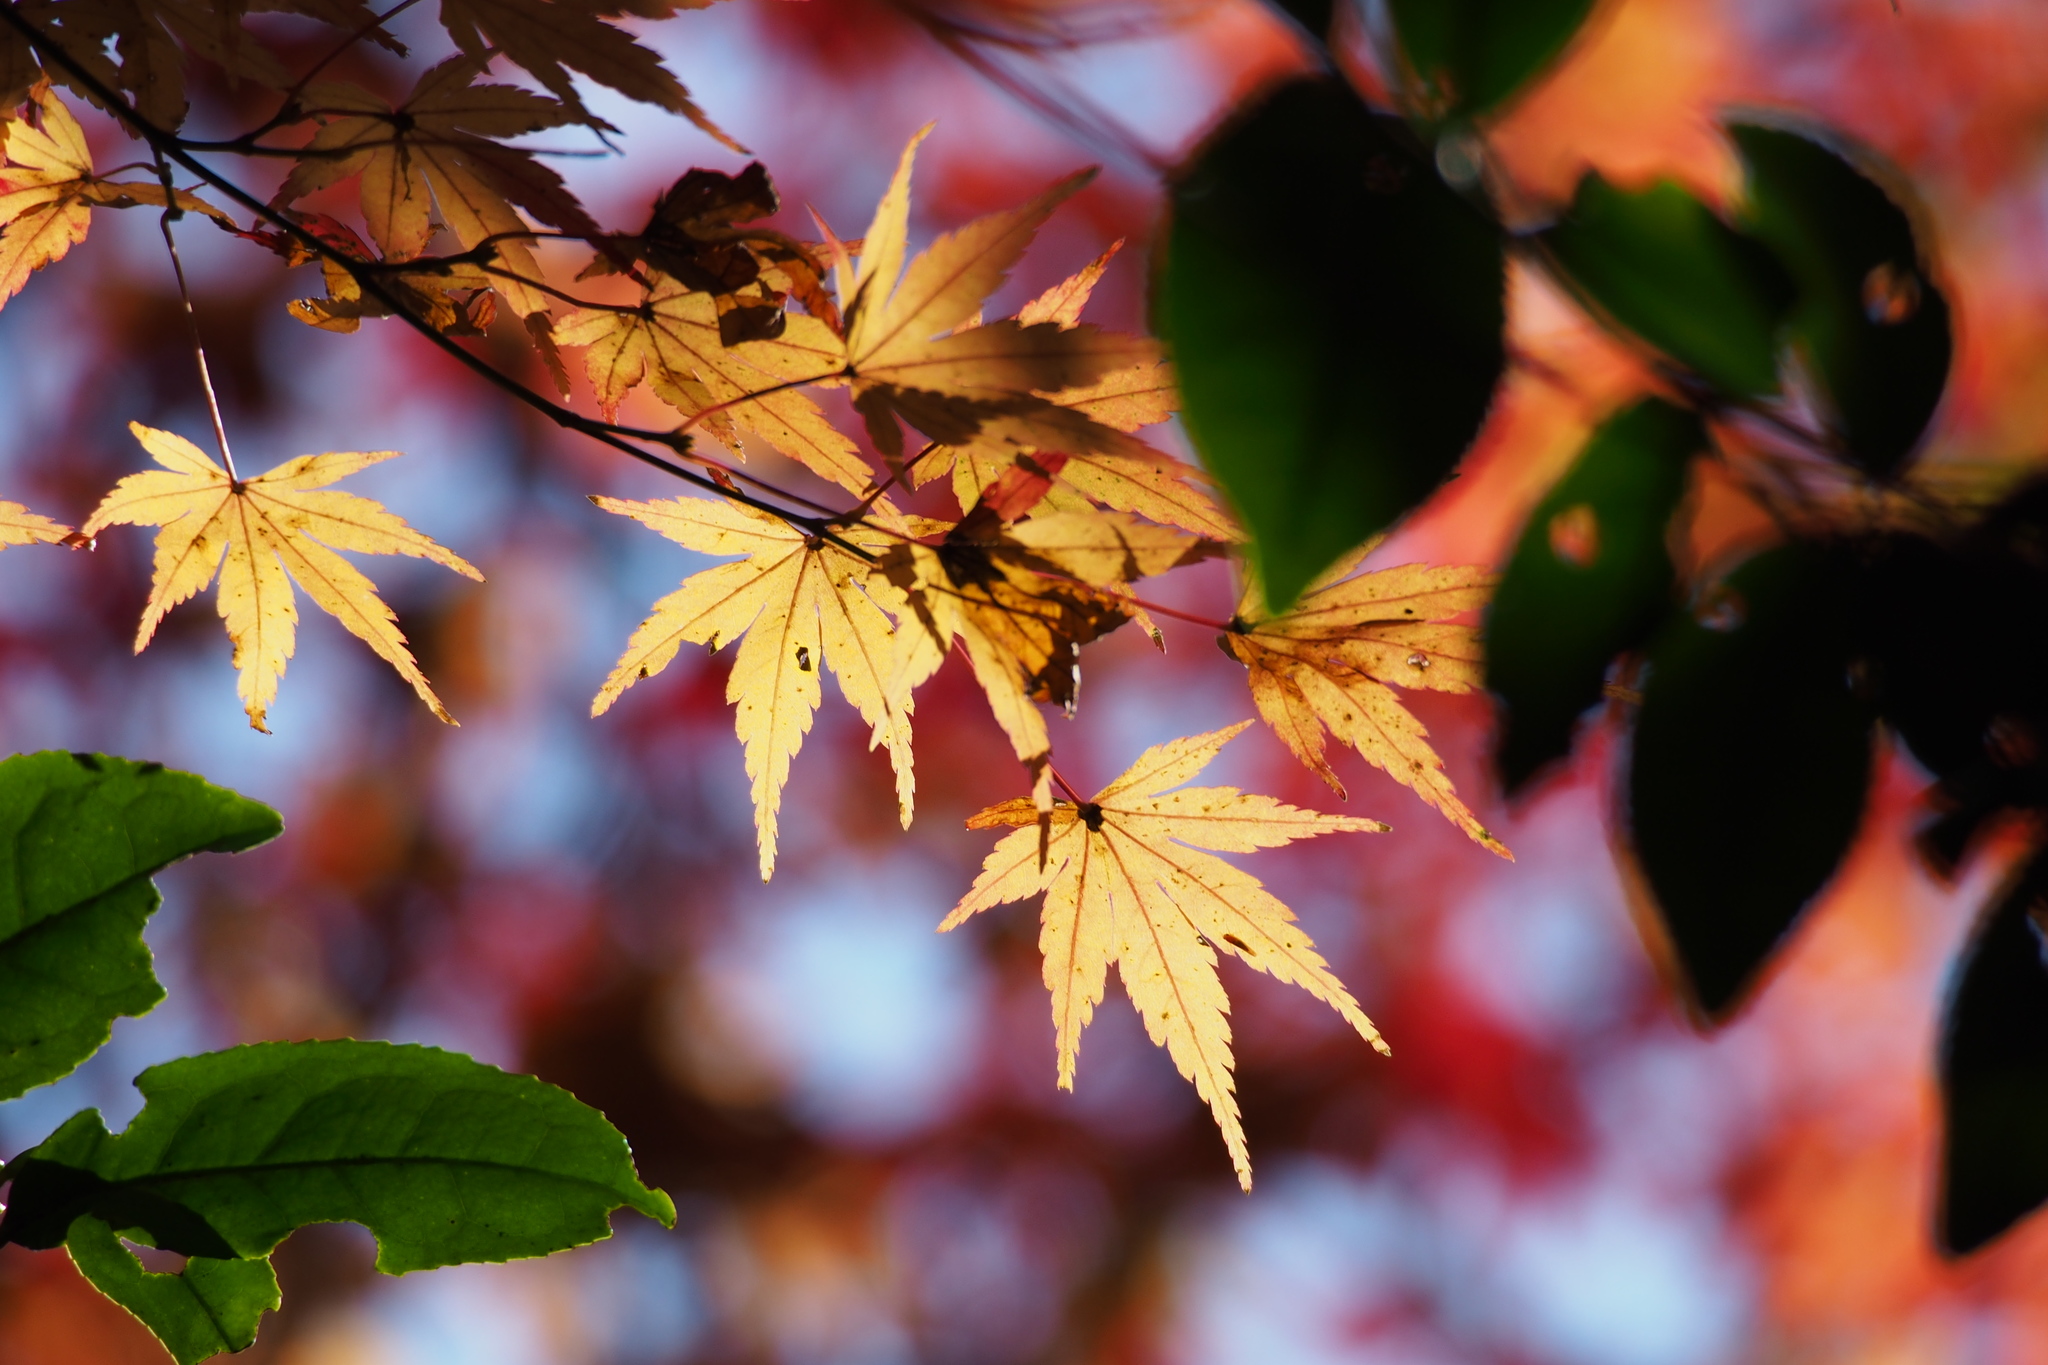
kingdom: Plantae
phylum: Tracheophyta
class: Magnoliopsida
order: Sapindales
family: Sapindaceae
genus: Acer
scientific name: Acer palmatum
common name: Japanese maple
